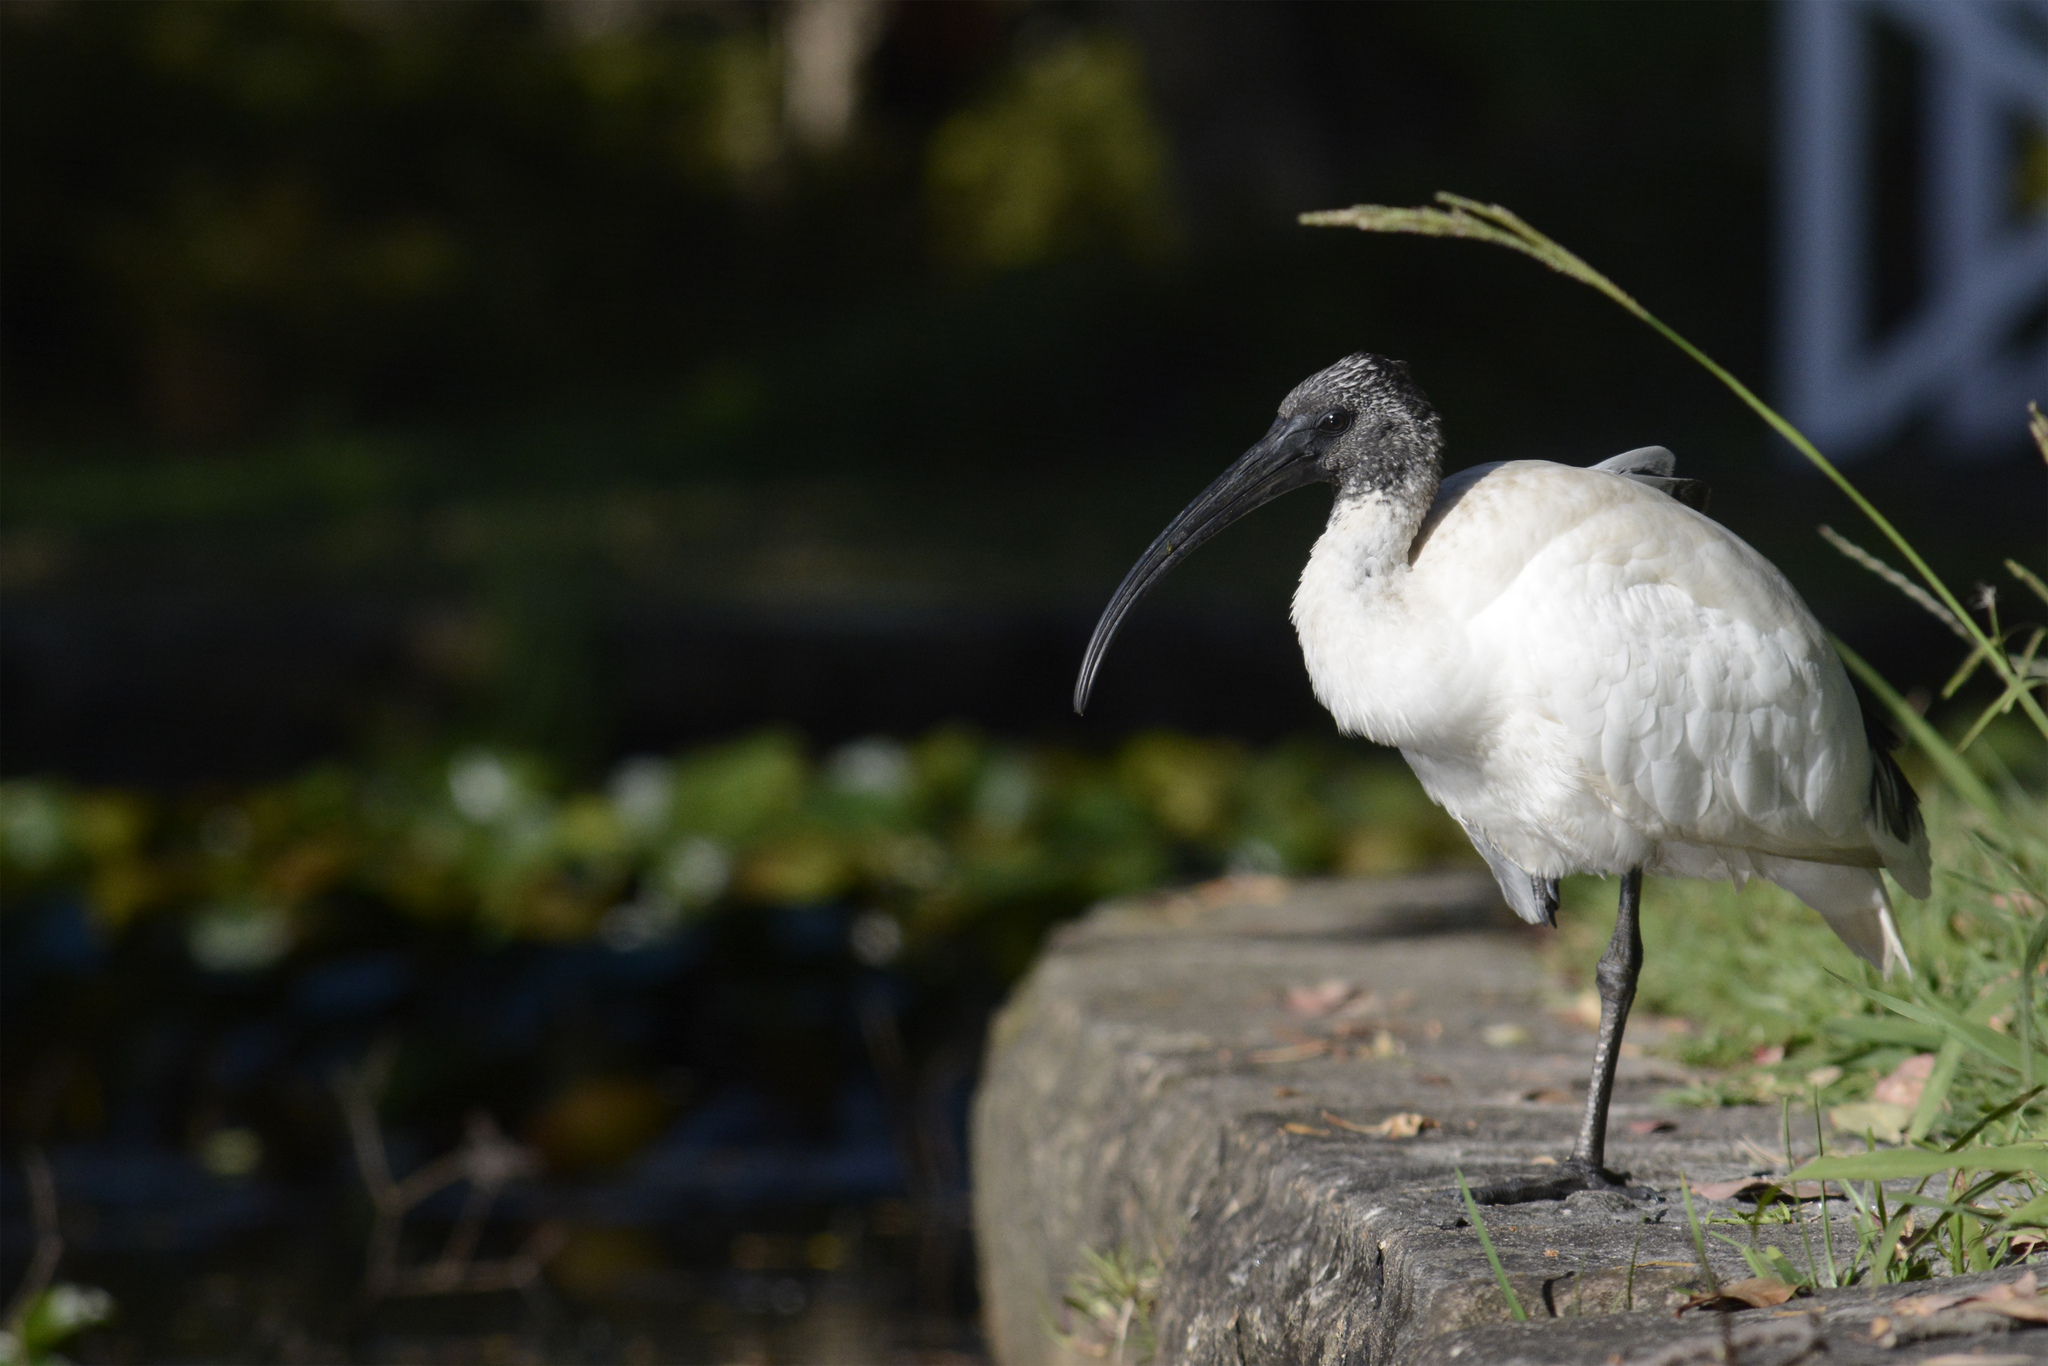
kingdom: Animalia
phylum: Chordata
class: Aves
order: Pelecaniformes
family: Threskiornithidae
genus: Threskiornis
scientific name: Threskiornis molucca
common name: Australian white ibis
